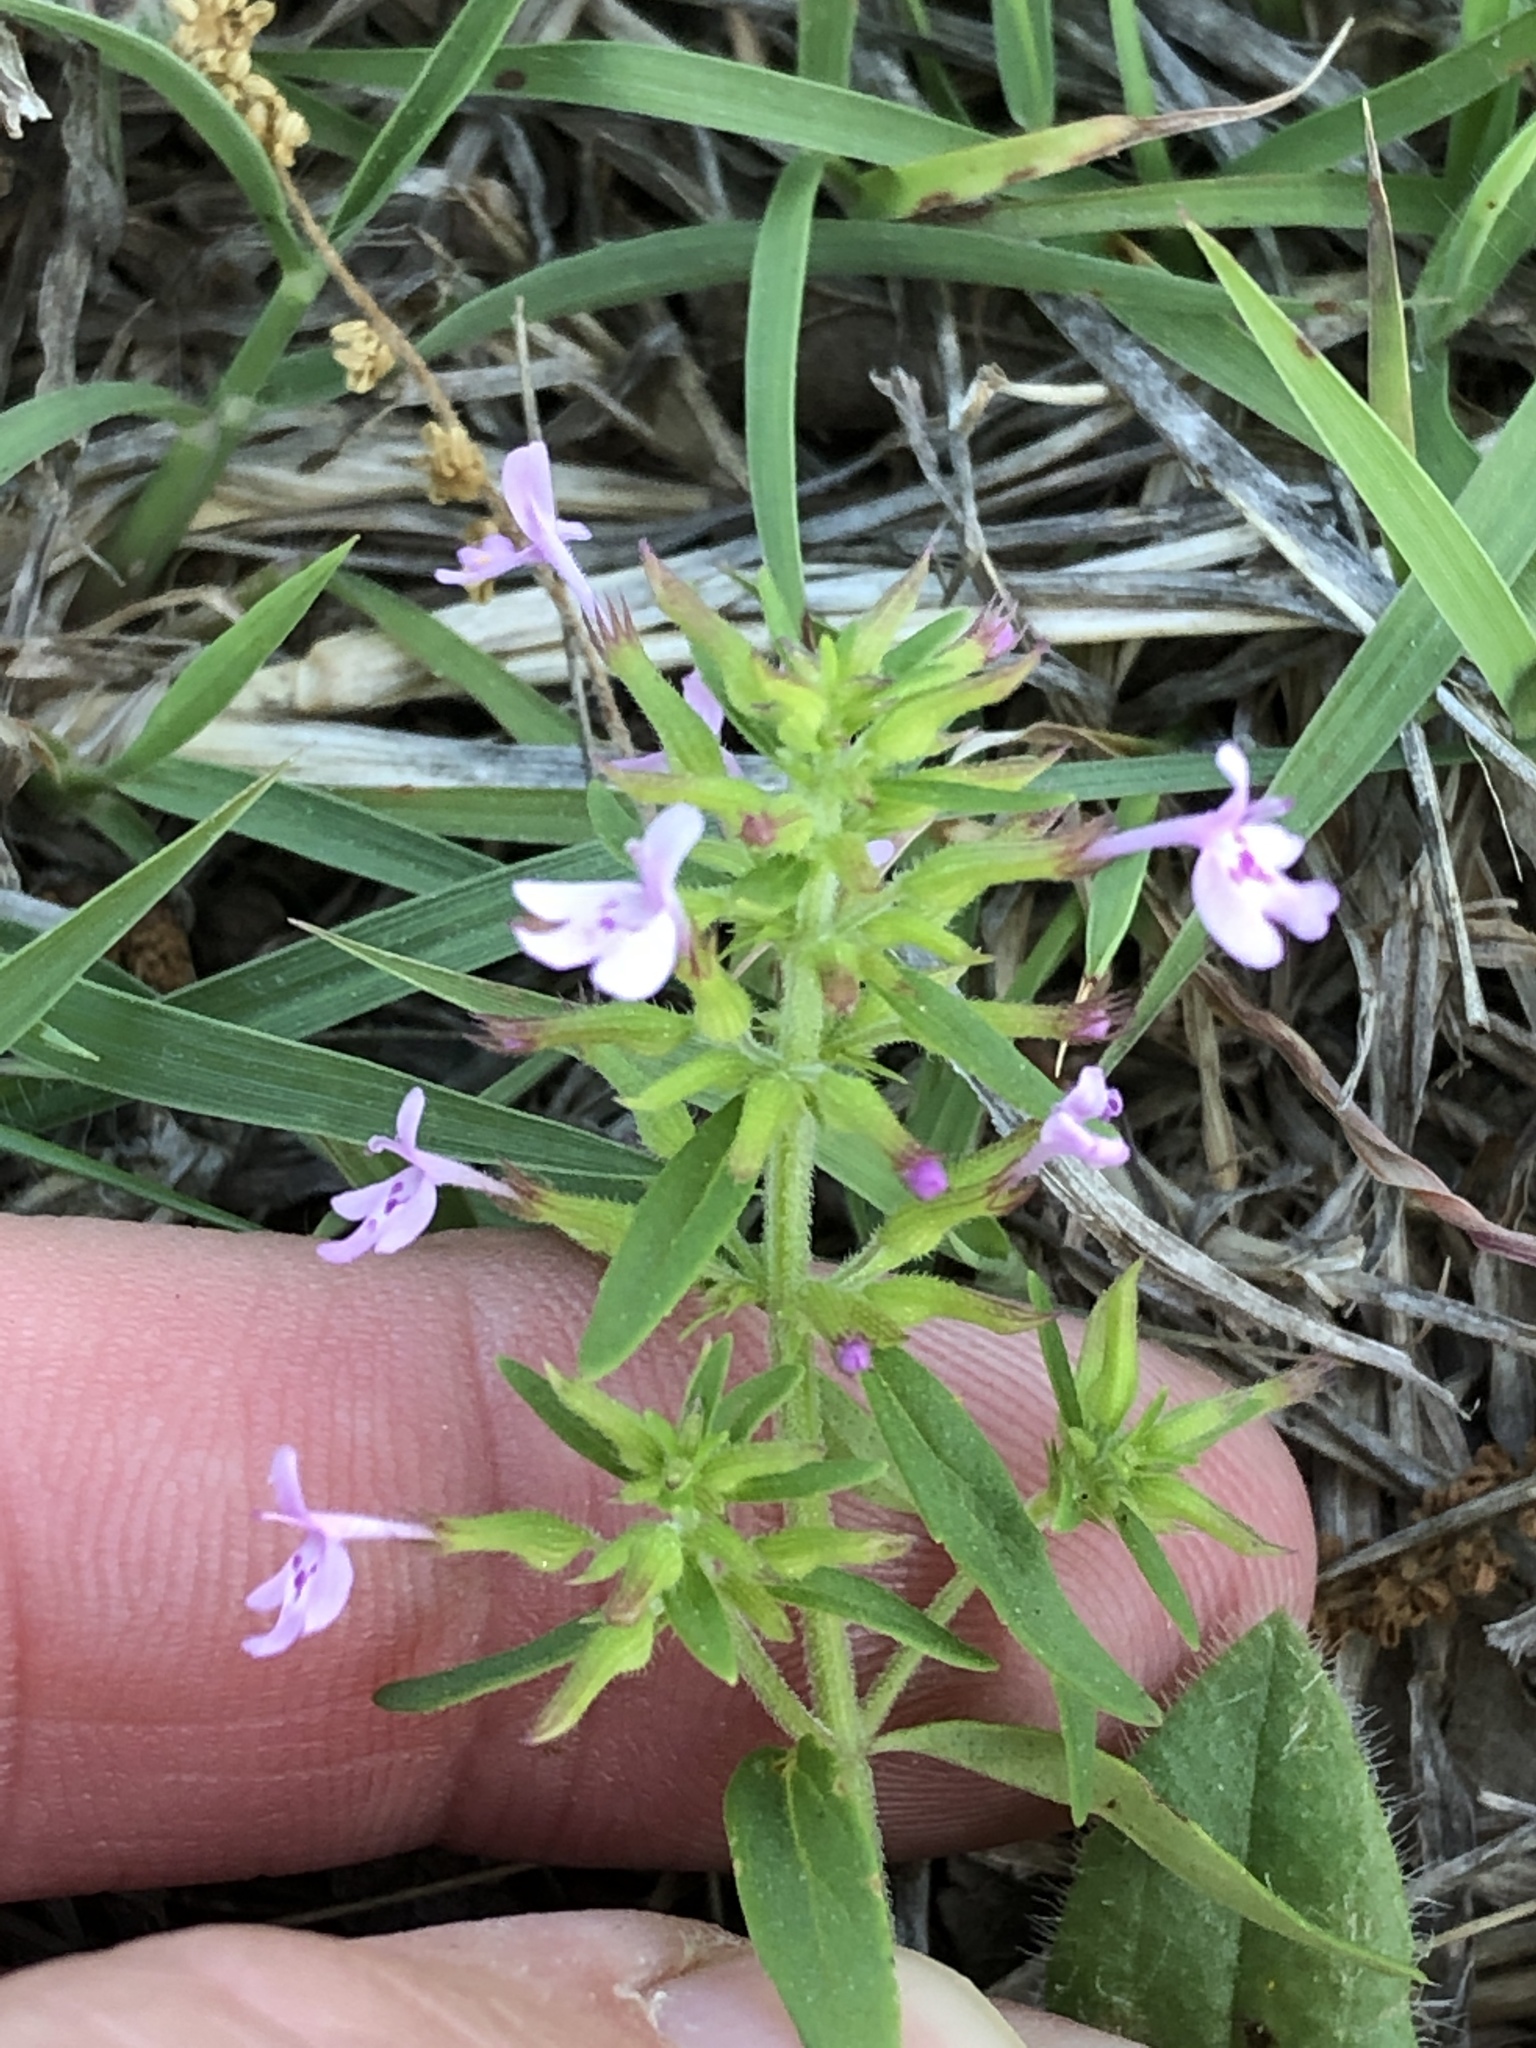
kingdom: Plantae
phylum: Tracheophyta
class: Magnoliopsida
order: Lamiales
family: Lamiaceae
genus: Hedeoma
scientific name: Hedeoma acinoides
